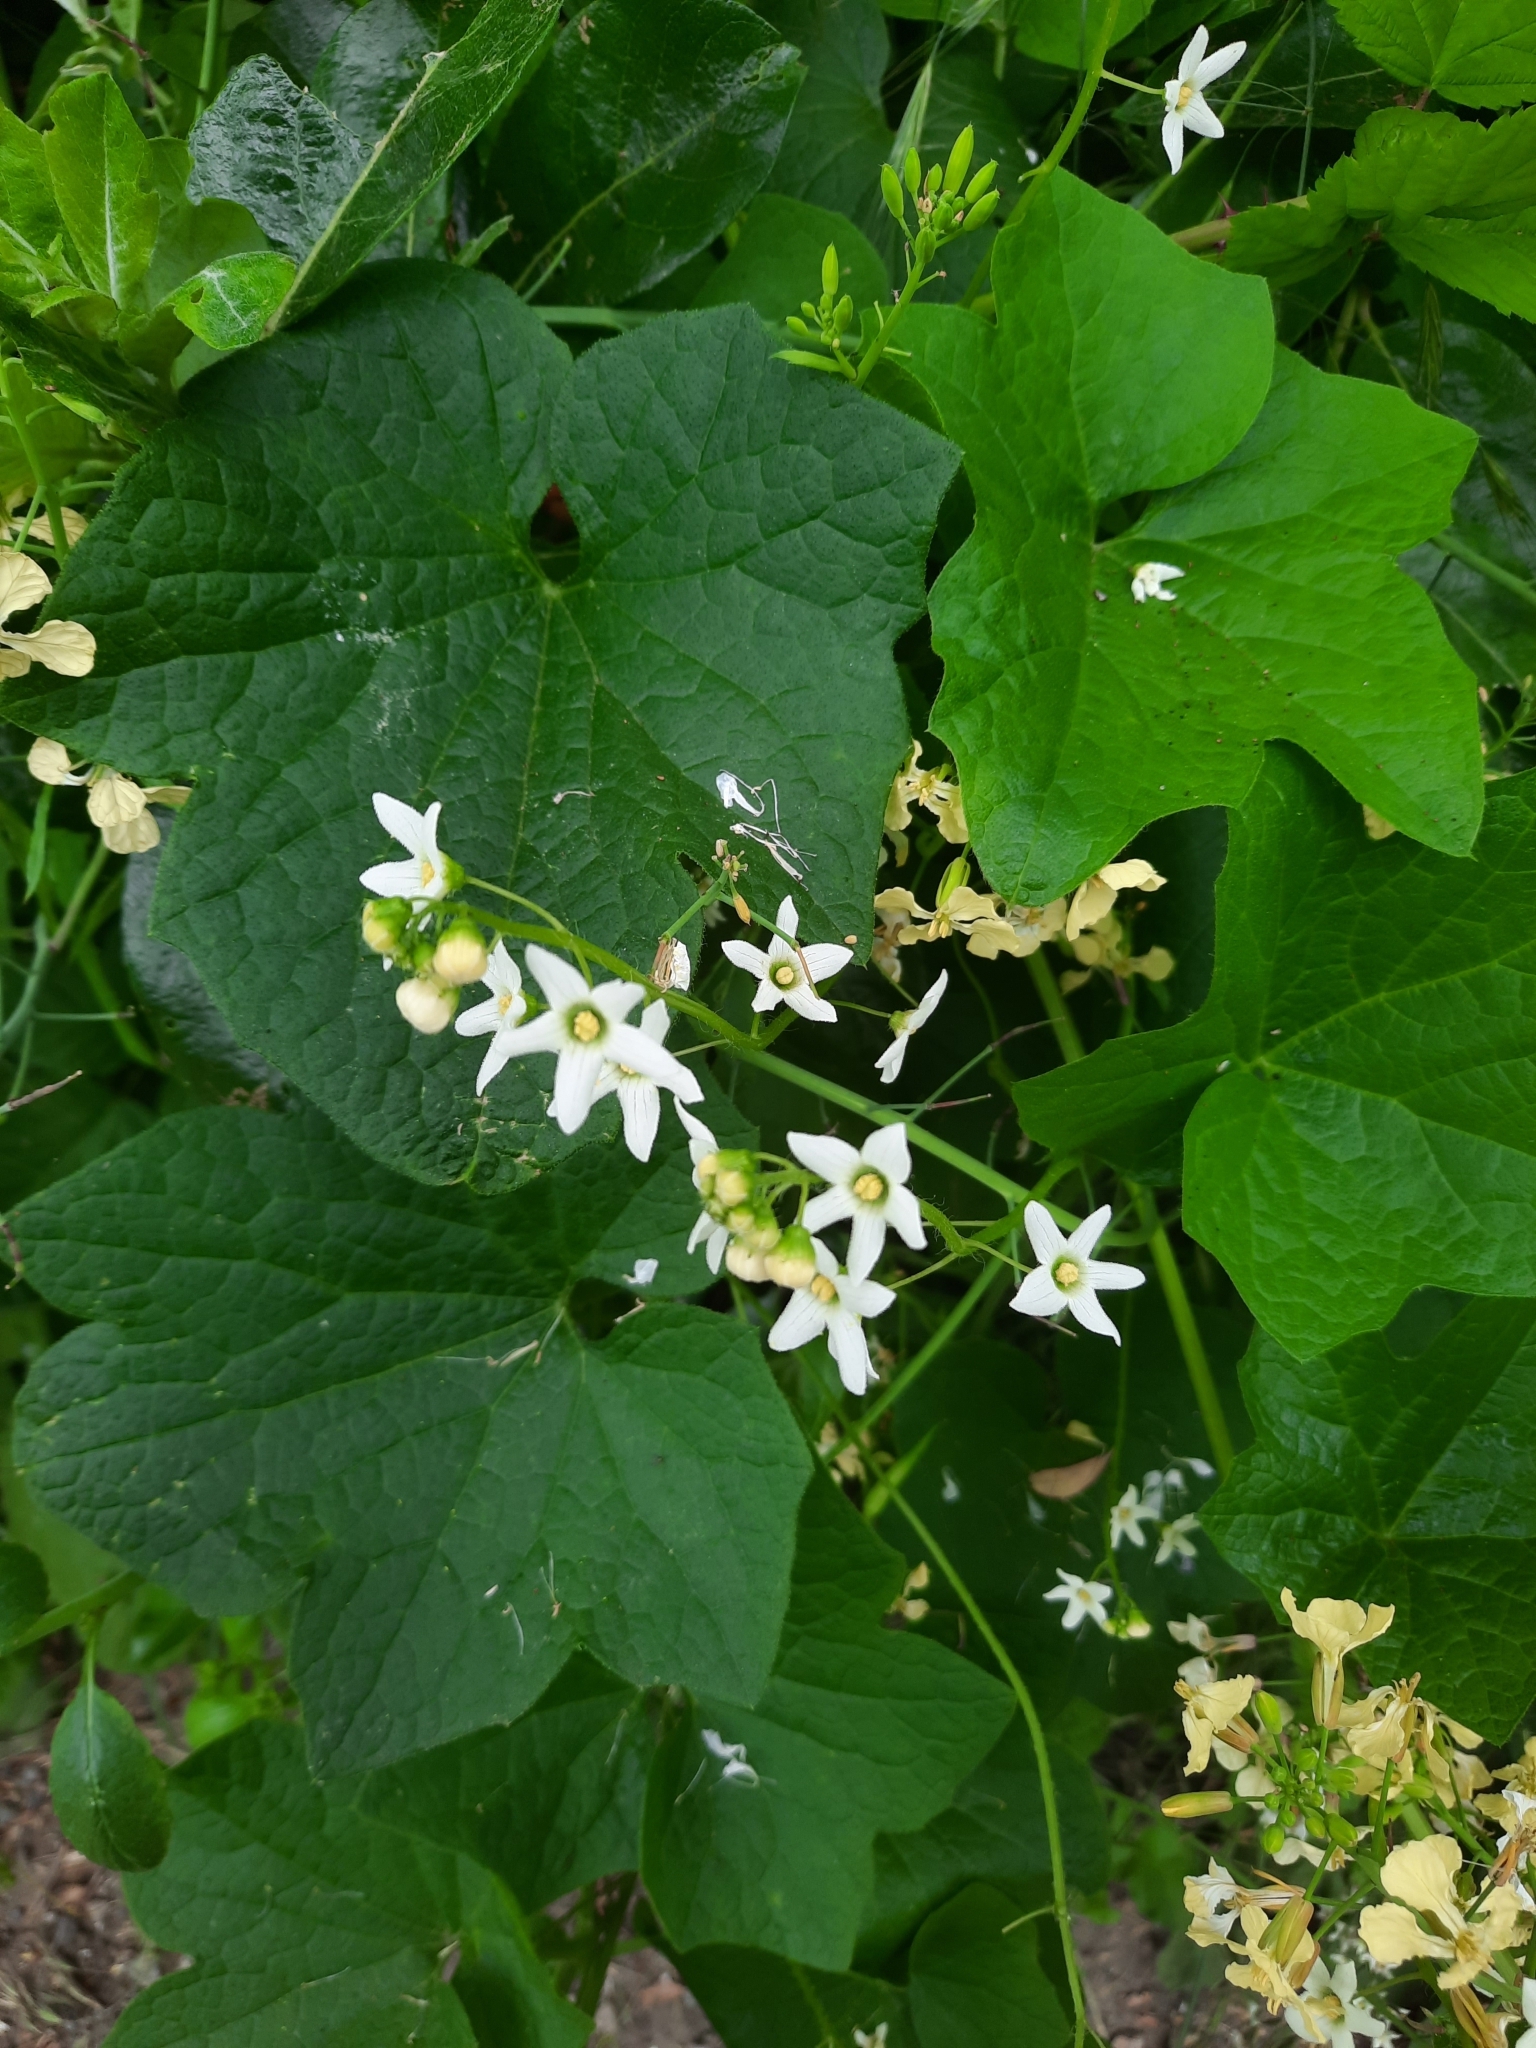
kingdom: Plantae
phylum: Tracheophyta
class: Magnoliopsida
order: Cucurbitales
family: Cucurbitaceae
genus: Marah
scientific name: Marah oregana
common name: Coastal manroot
